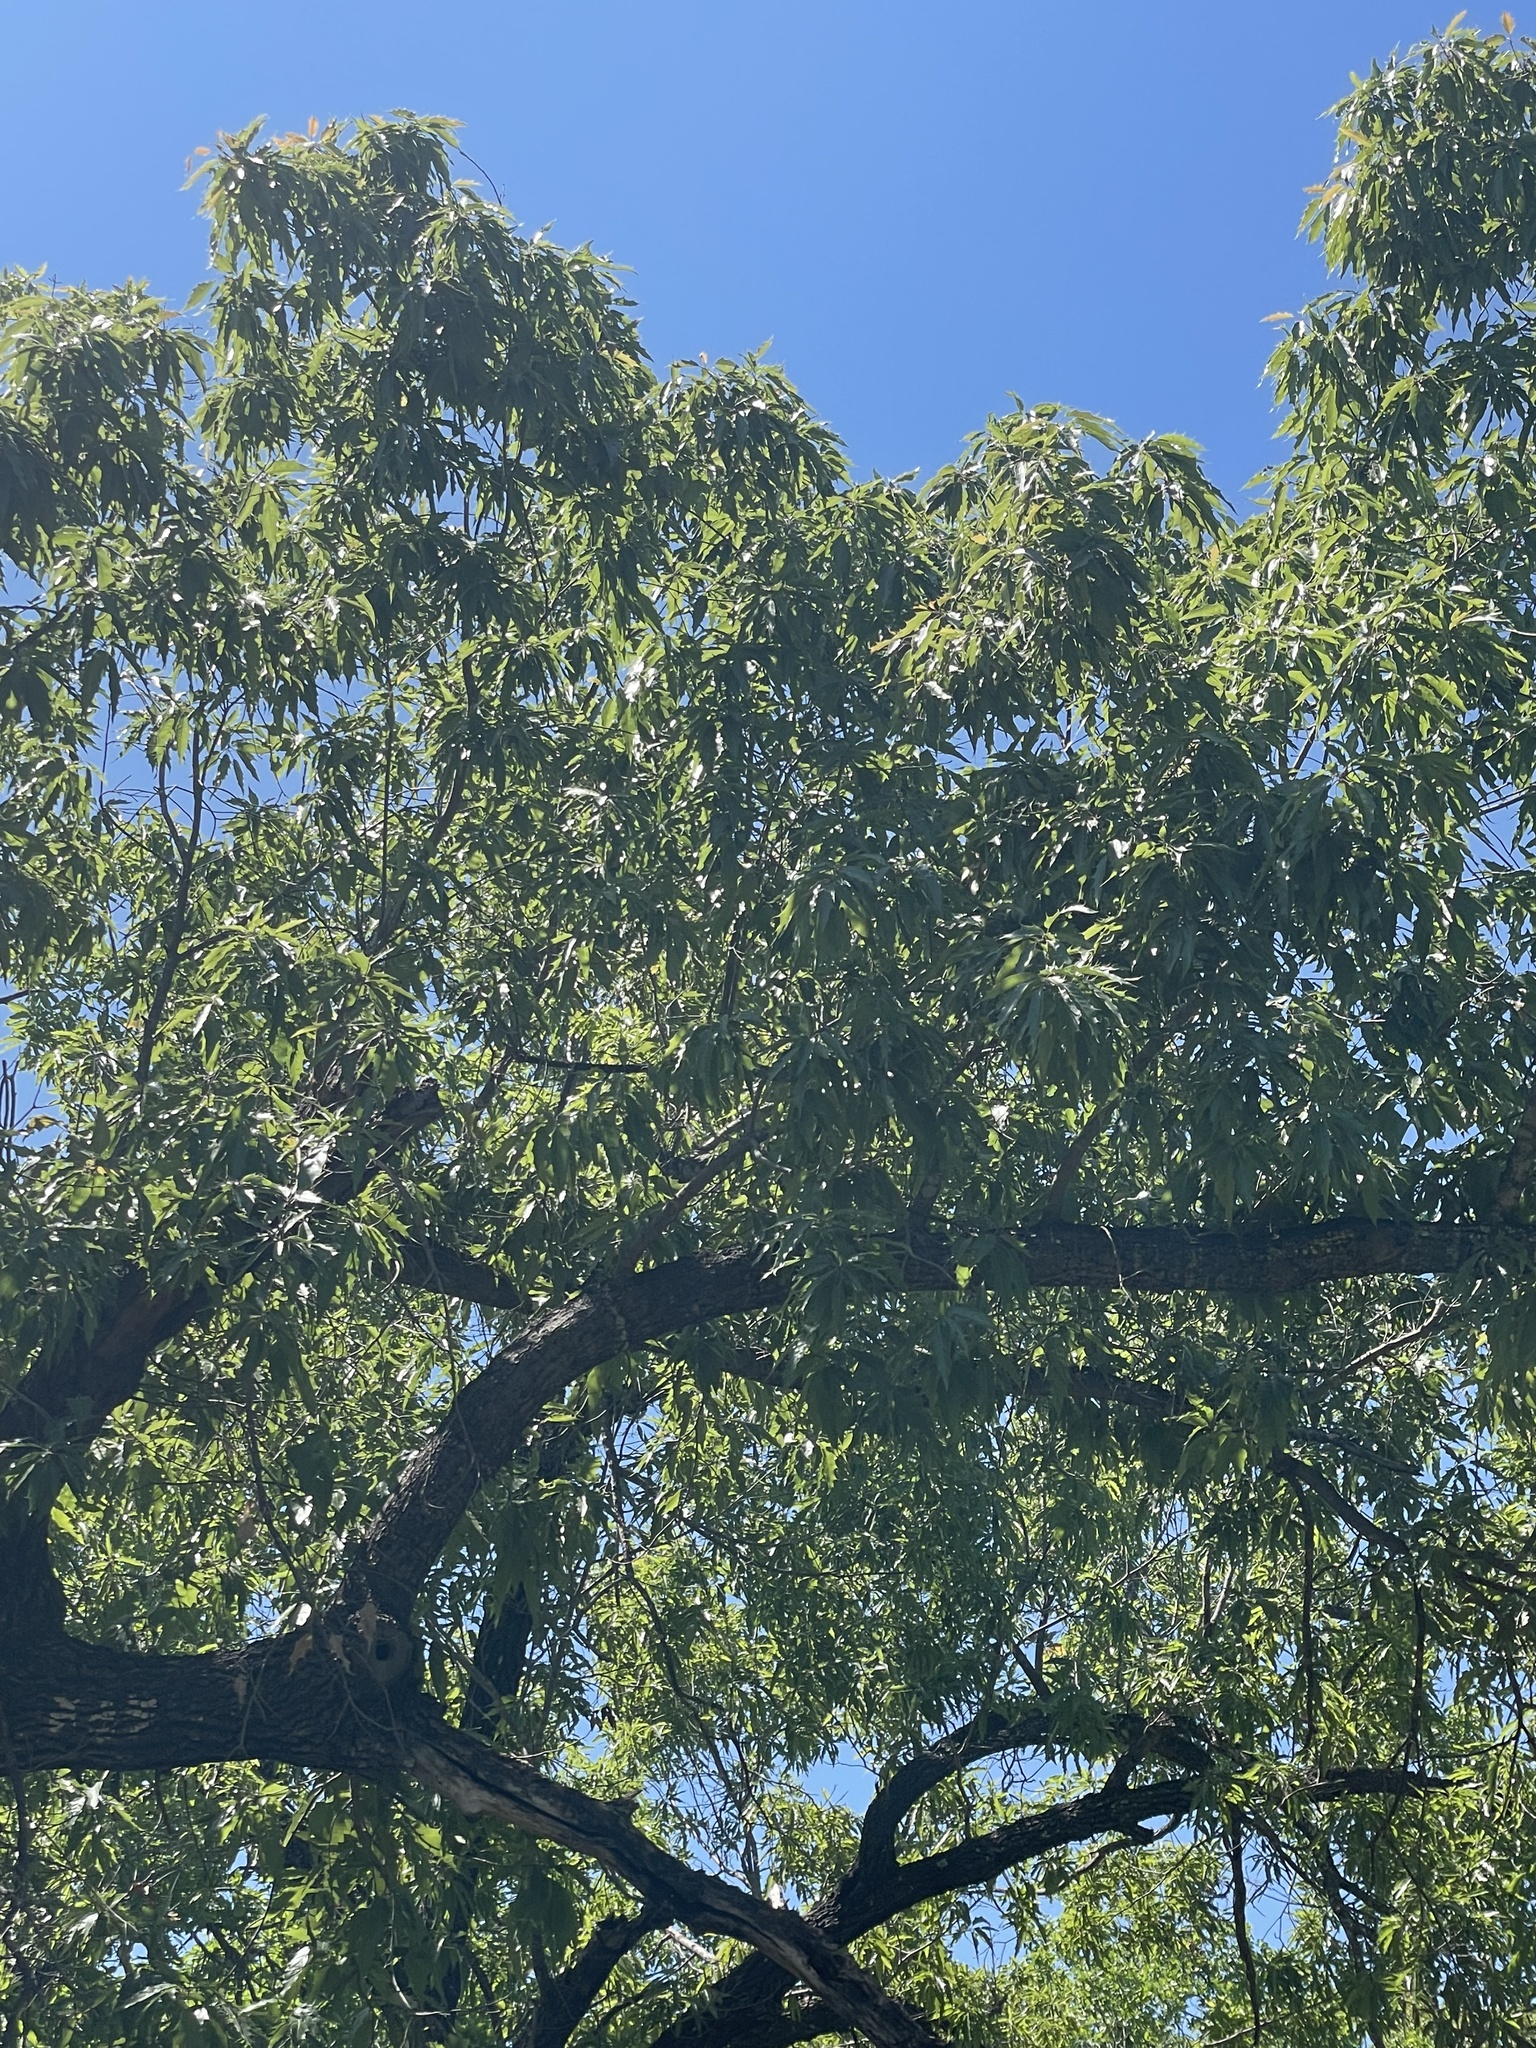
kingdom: Plantae
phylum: Tracheophyta
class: Magnoliopsida
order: Fagales
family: Fagaceae
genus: Quercus
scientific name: Quercus albocincta
